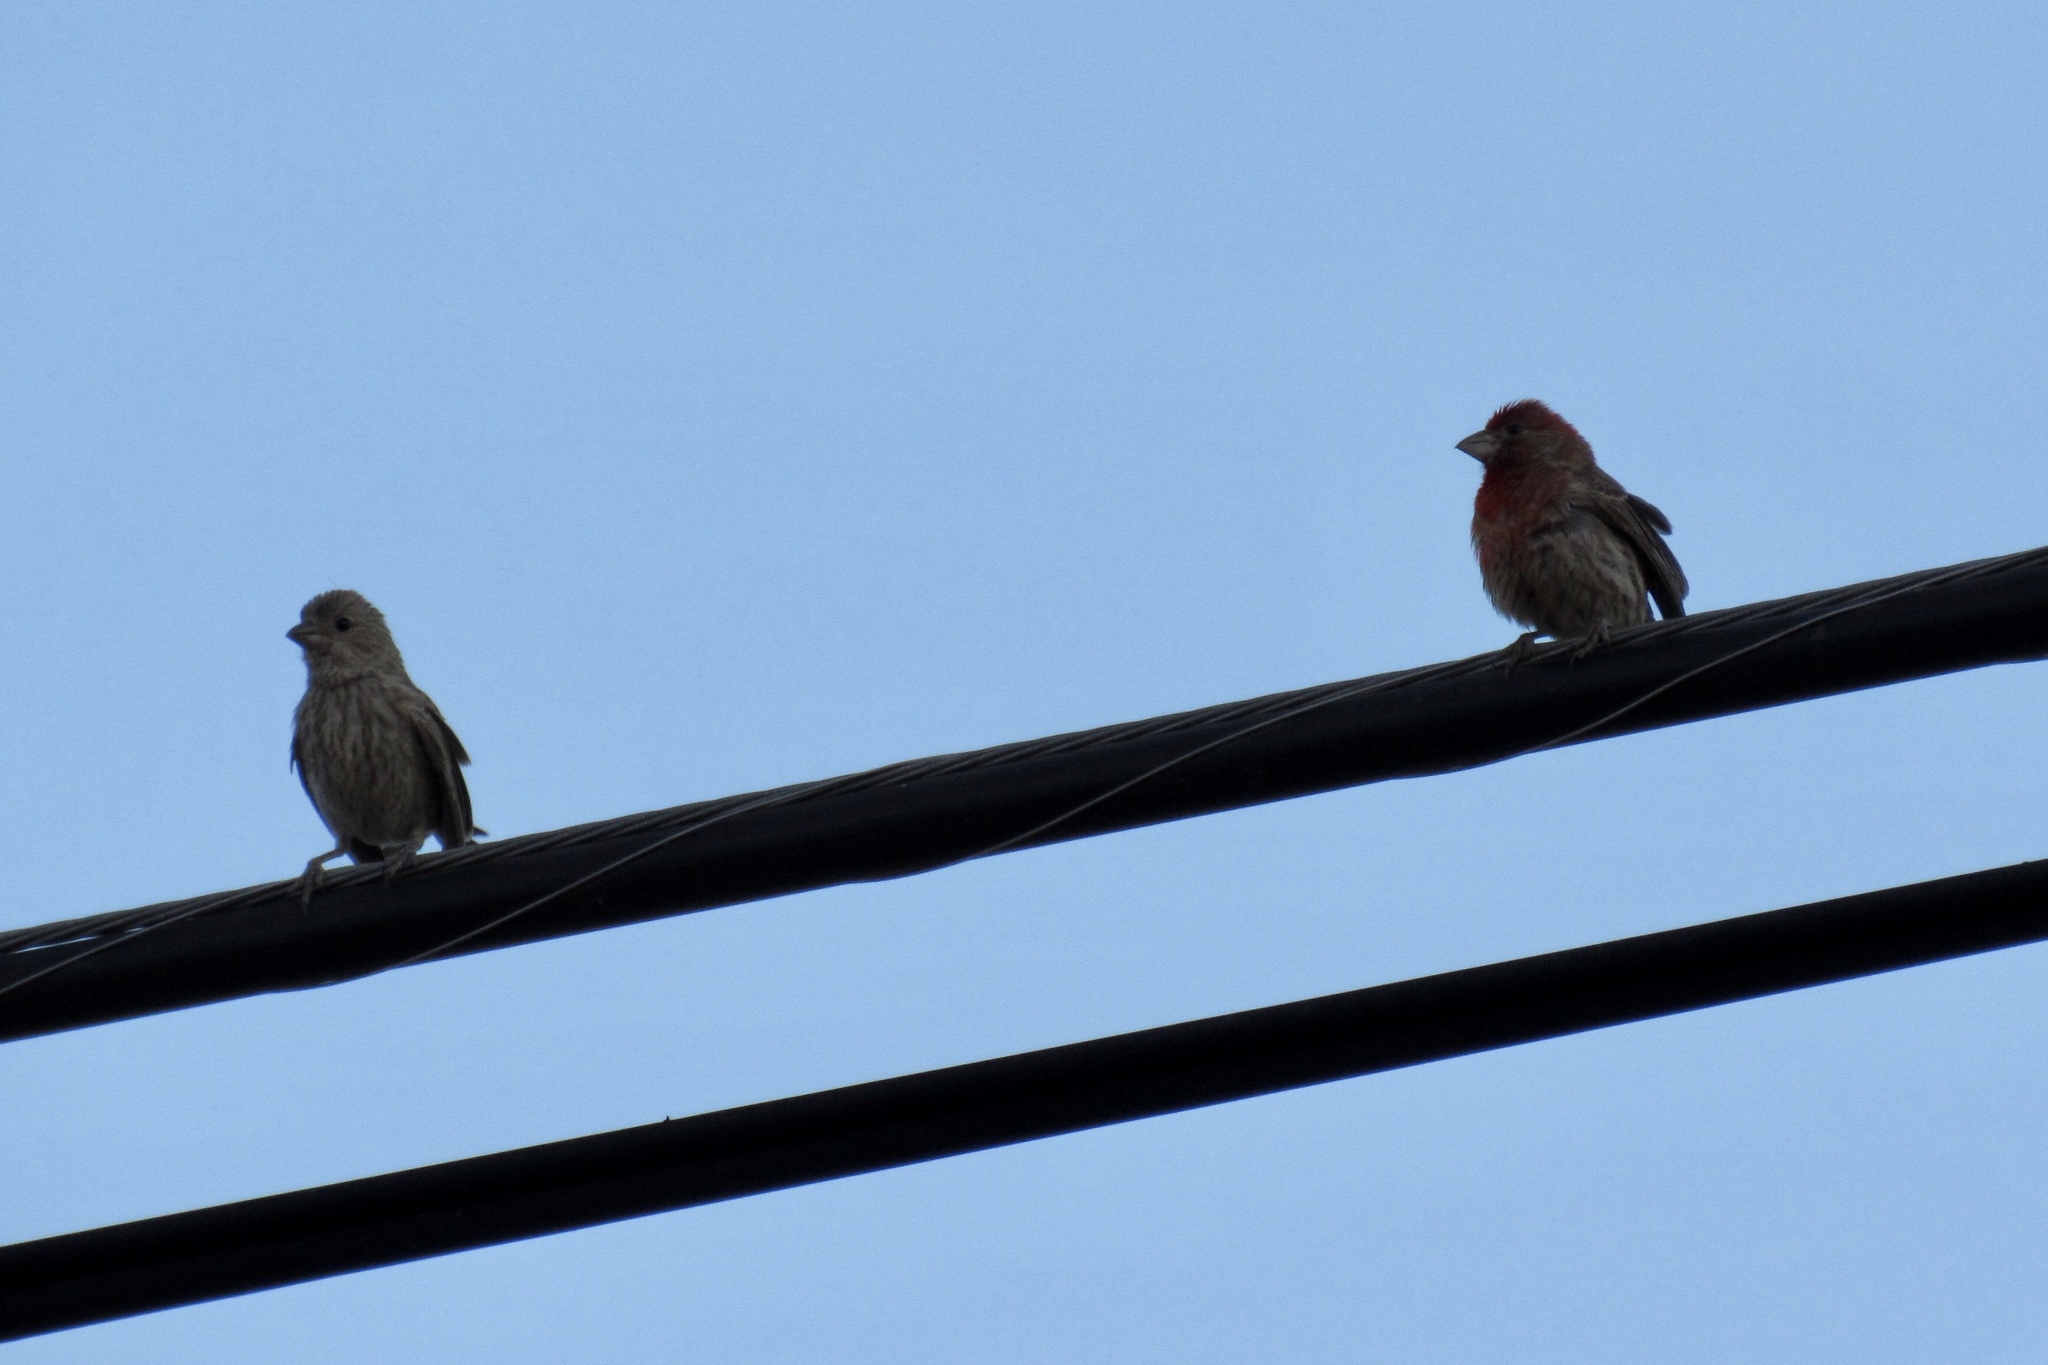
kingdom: Animalia
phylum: Chordata
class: Aves
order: Passeriformes
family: Fringillidae
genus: Haemorhous
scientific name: Haemorhous mexicanus
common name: House finch
